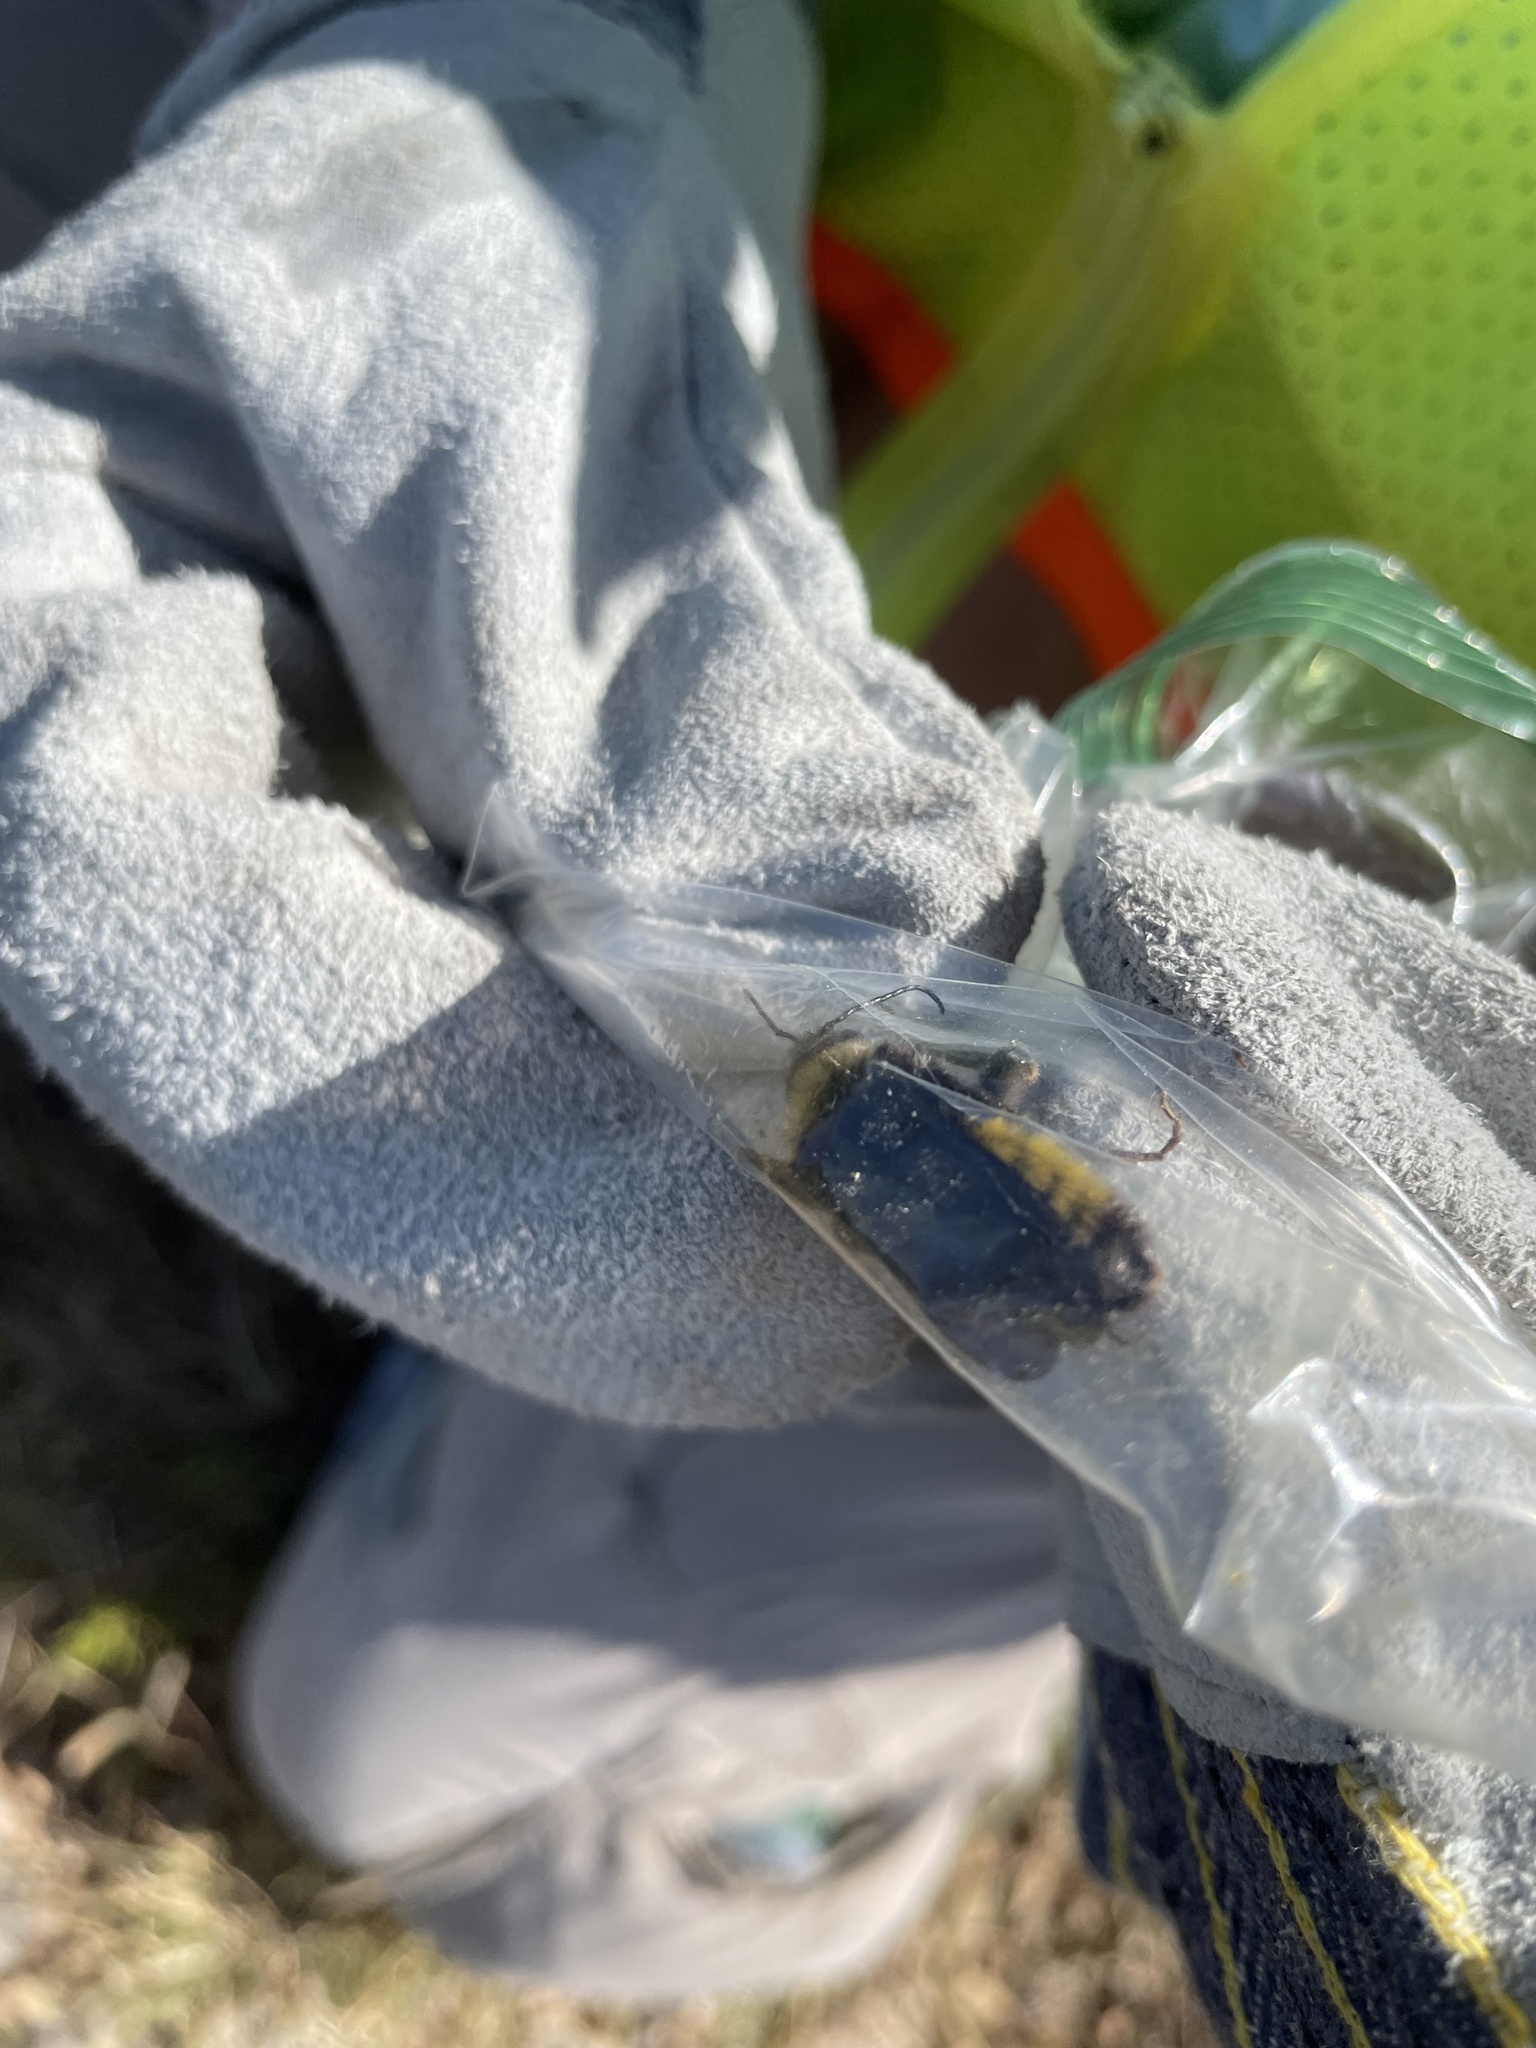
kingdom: Animalia
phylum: Arthropoda
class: Insecta
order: Hymenoptera
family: Apidae
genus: Bombus
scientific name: Bombus pensylvanicus
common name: Bumble bee
